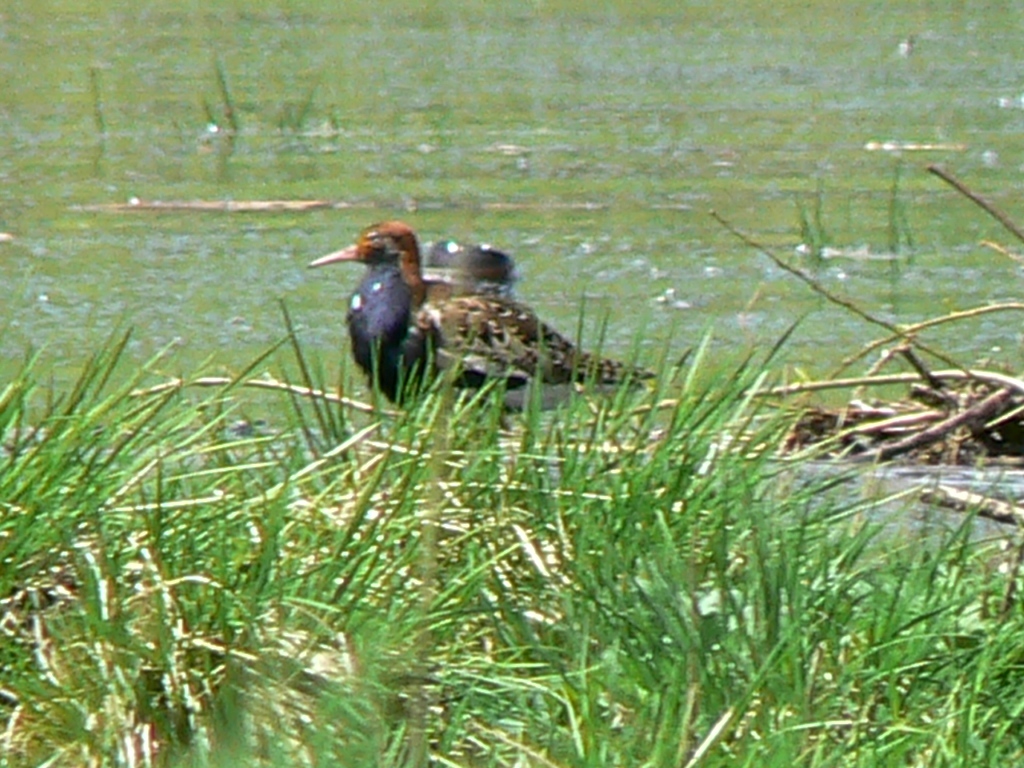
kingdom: Animalia
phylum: Chordata
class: Aves
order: Charadriiformes
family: Scolopacidae
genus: Calidris
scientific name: Calidris pugnax
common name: Ruff
